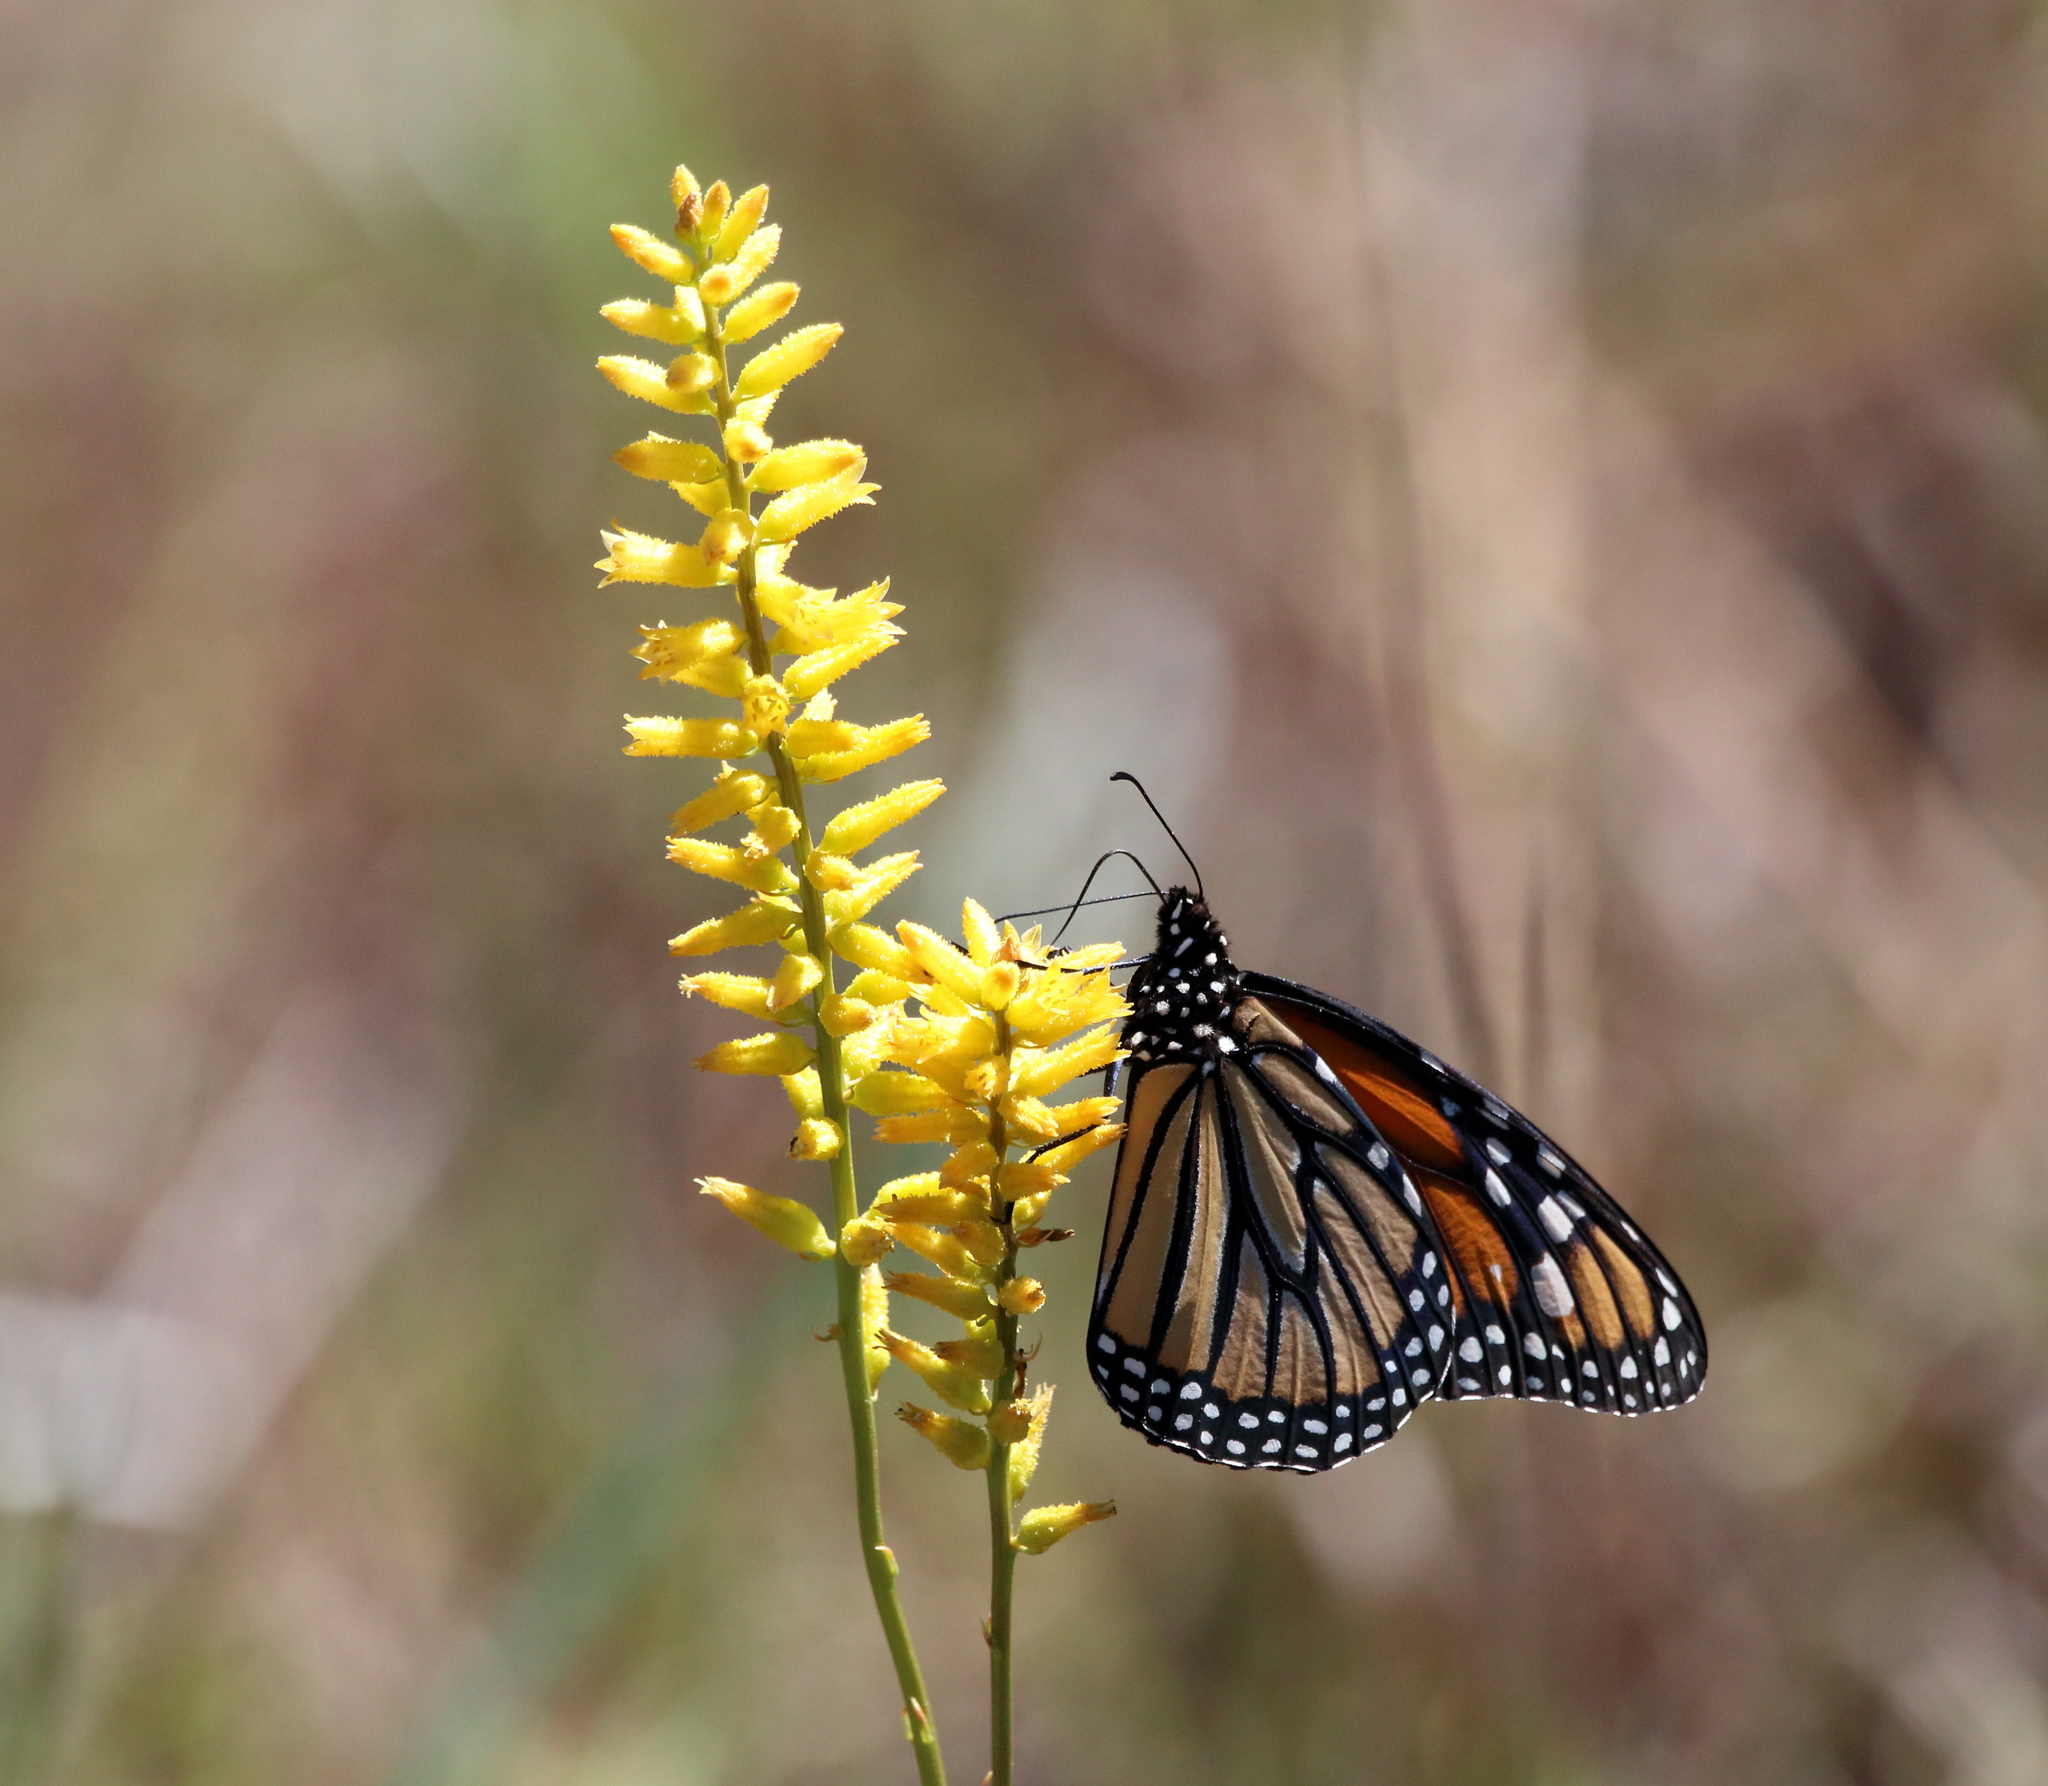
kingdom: Animalia
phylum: Arthropoda
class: Insecta
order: Lepidoptera
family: Nymphalidae
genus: Danaus
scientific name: Danaus plexippus
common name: Monarch
